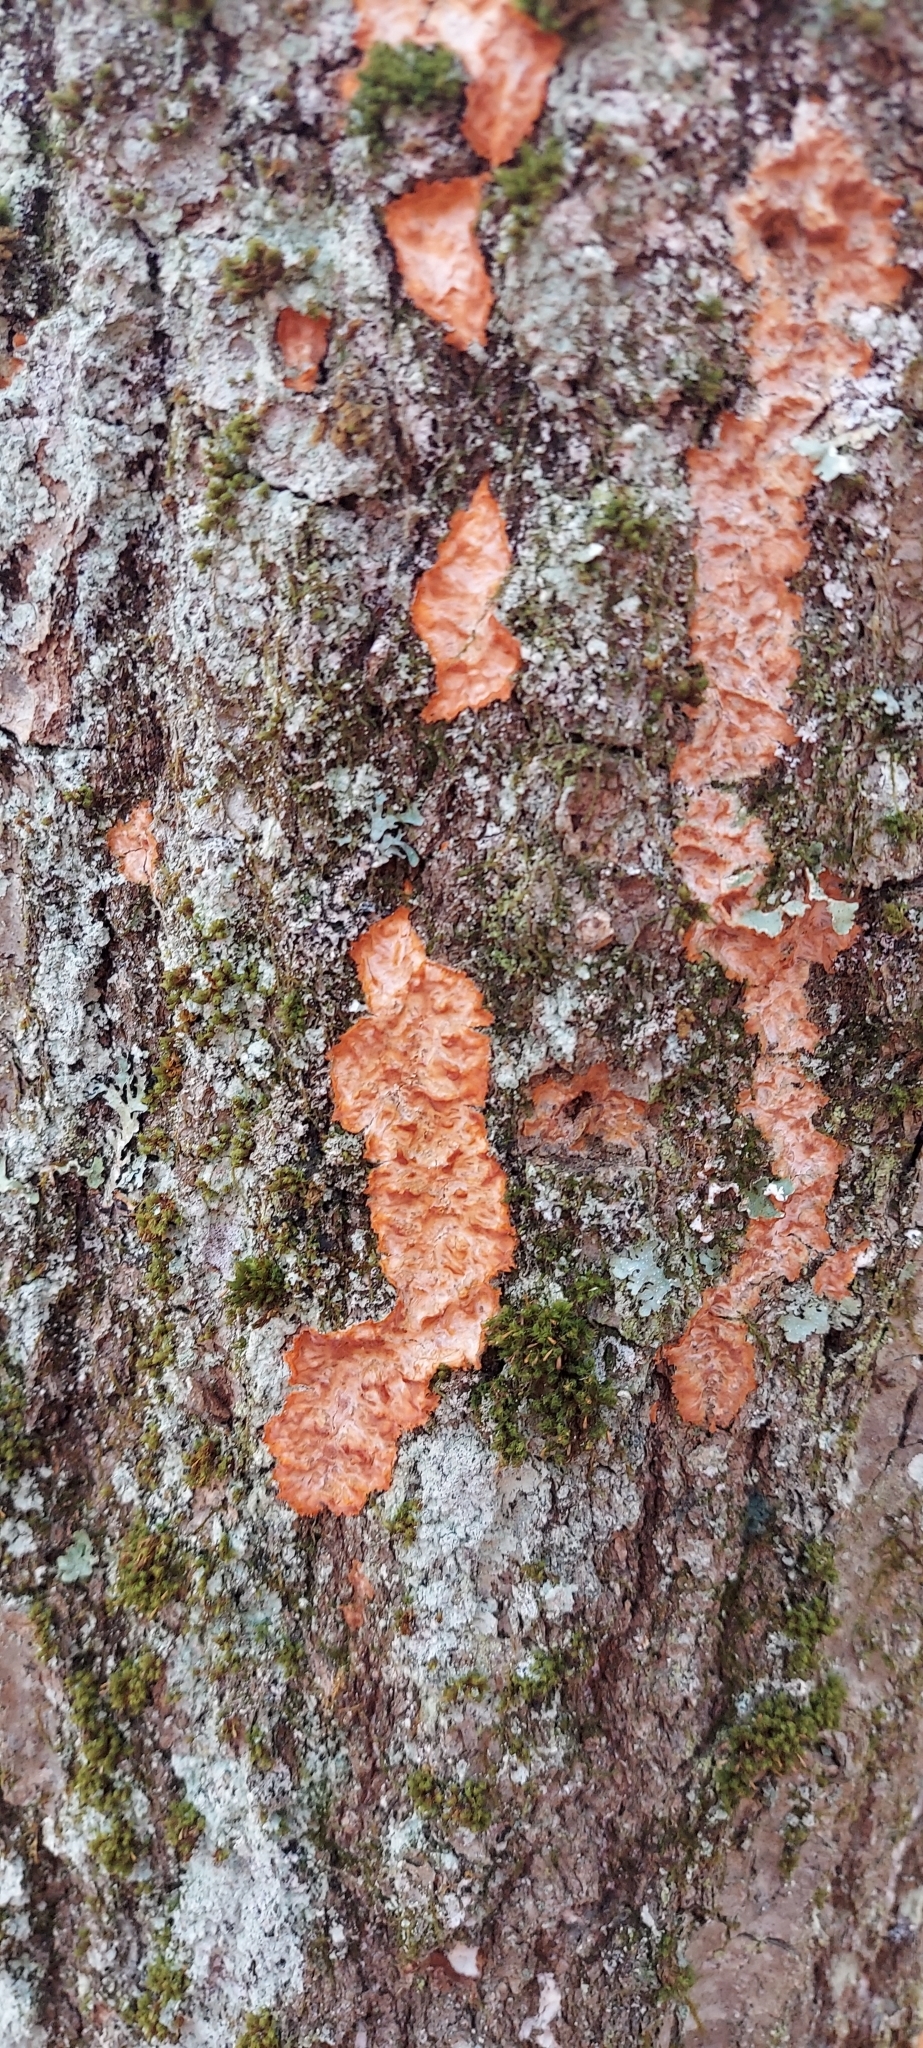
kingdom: Fungi
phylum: Basidiomycota
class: Agaricomycetes
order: Polyporales
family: Meruliaceae
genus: Phlebia
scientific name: Phlebia radiata
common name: Wrinkled crust
